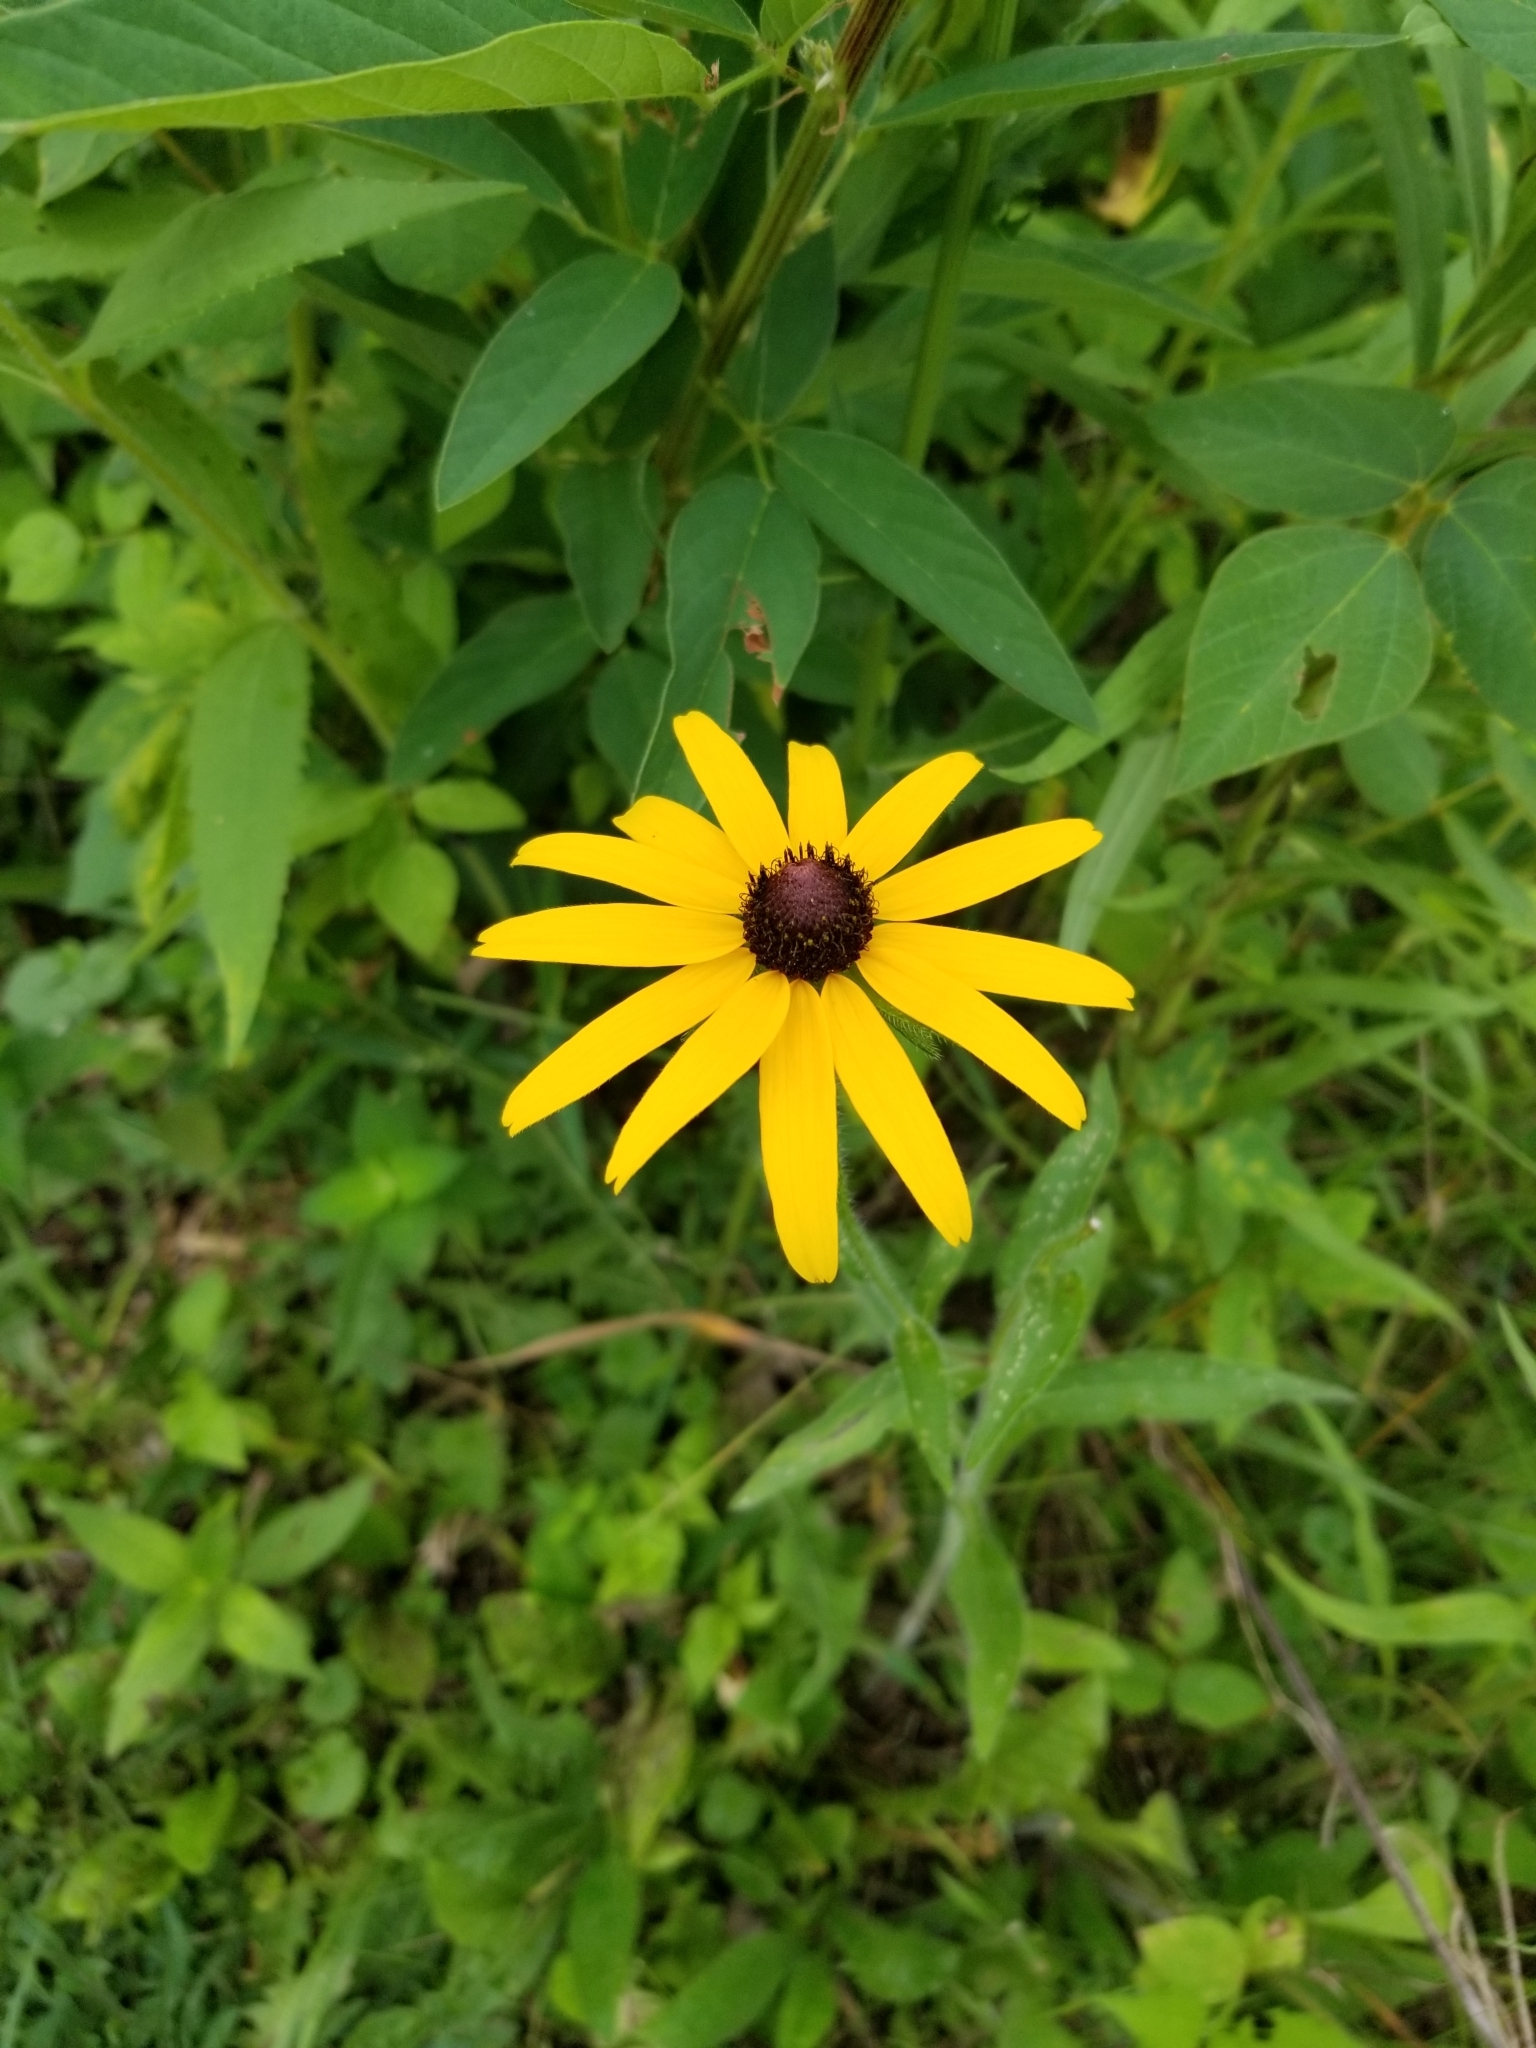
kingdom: Plantae
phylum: Tracheophyta
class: Magnoliopsida
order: Asterales
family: Asteraceae
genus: Rudbeckia
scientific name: Rudbeckia hirta
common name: Black-eyed-susan
